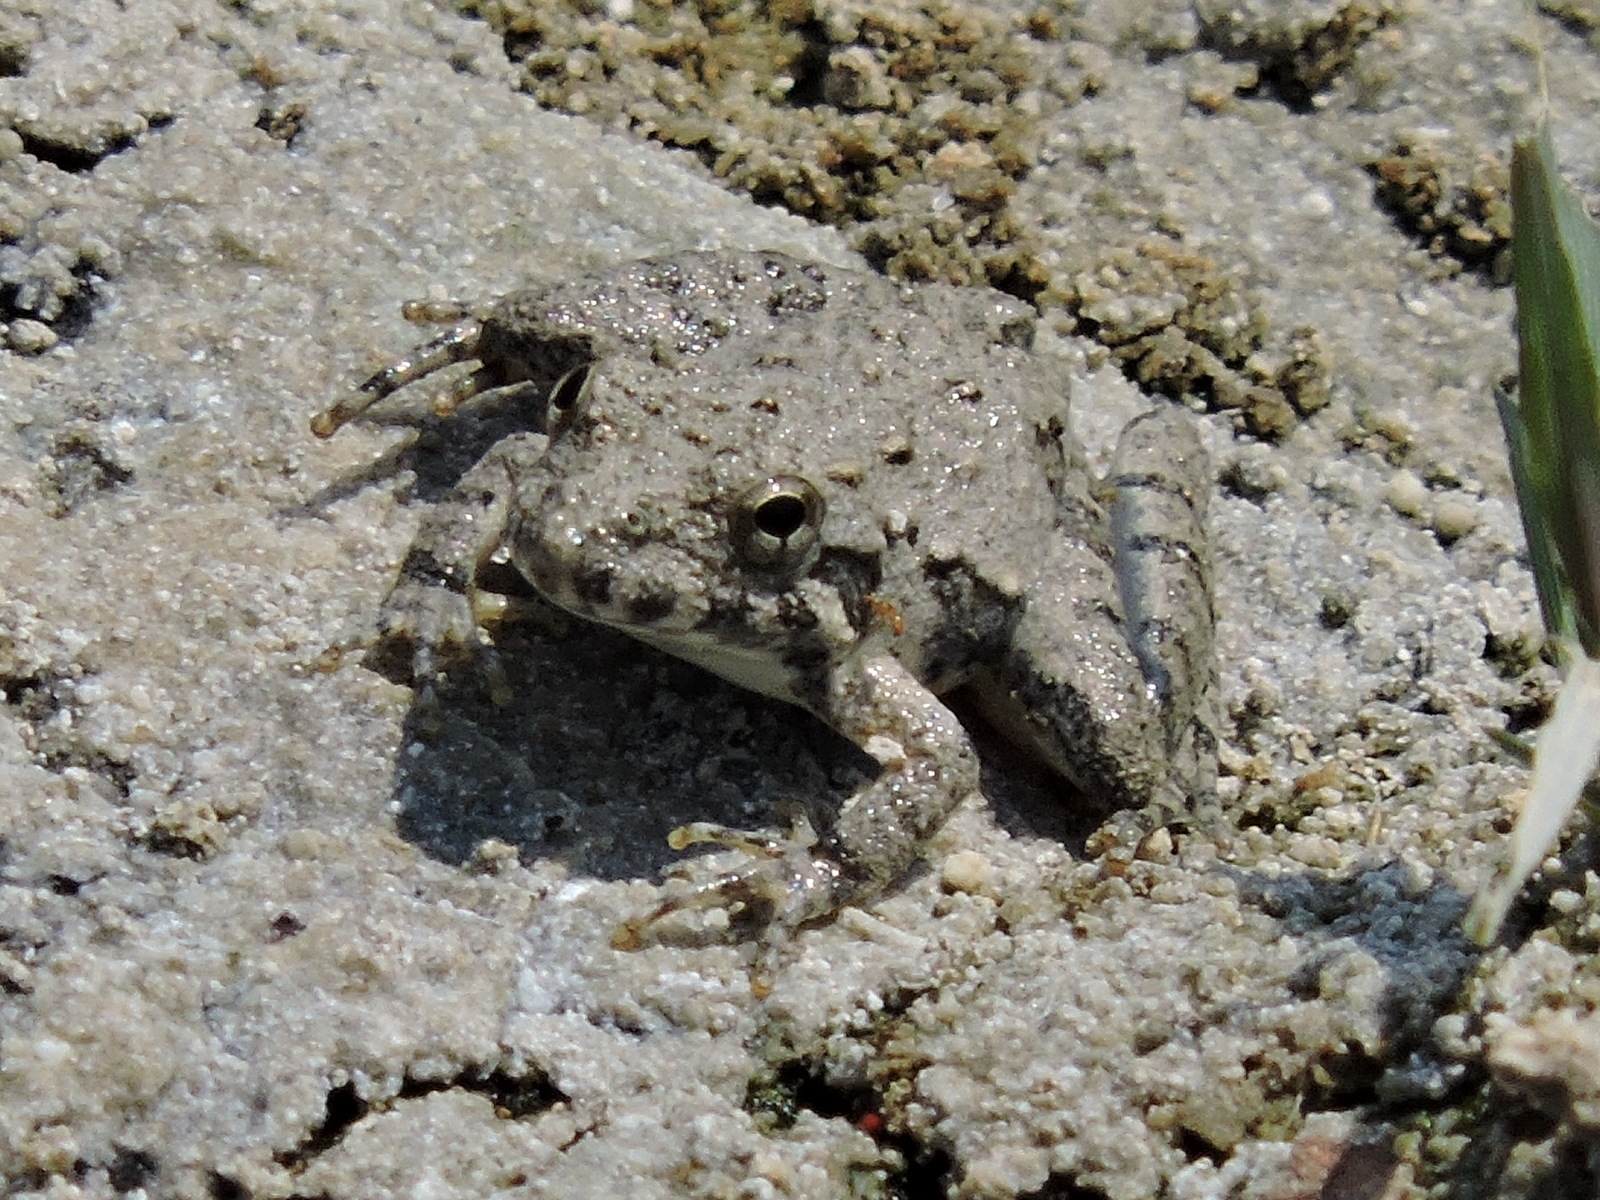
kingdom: Animalia
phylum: Chordata
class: Amphibia
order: Anura
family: Hylidae
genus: Acris
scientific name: Acris blanchardi
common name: Blanchard's cricket frog
